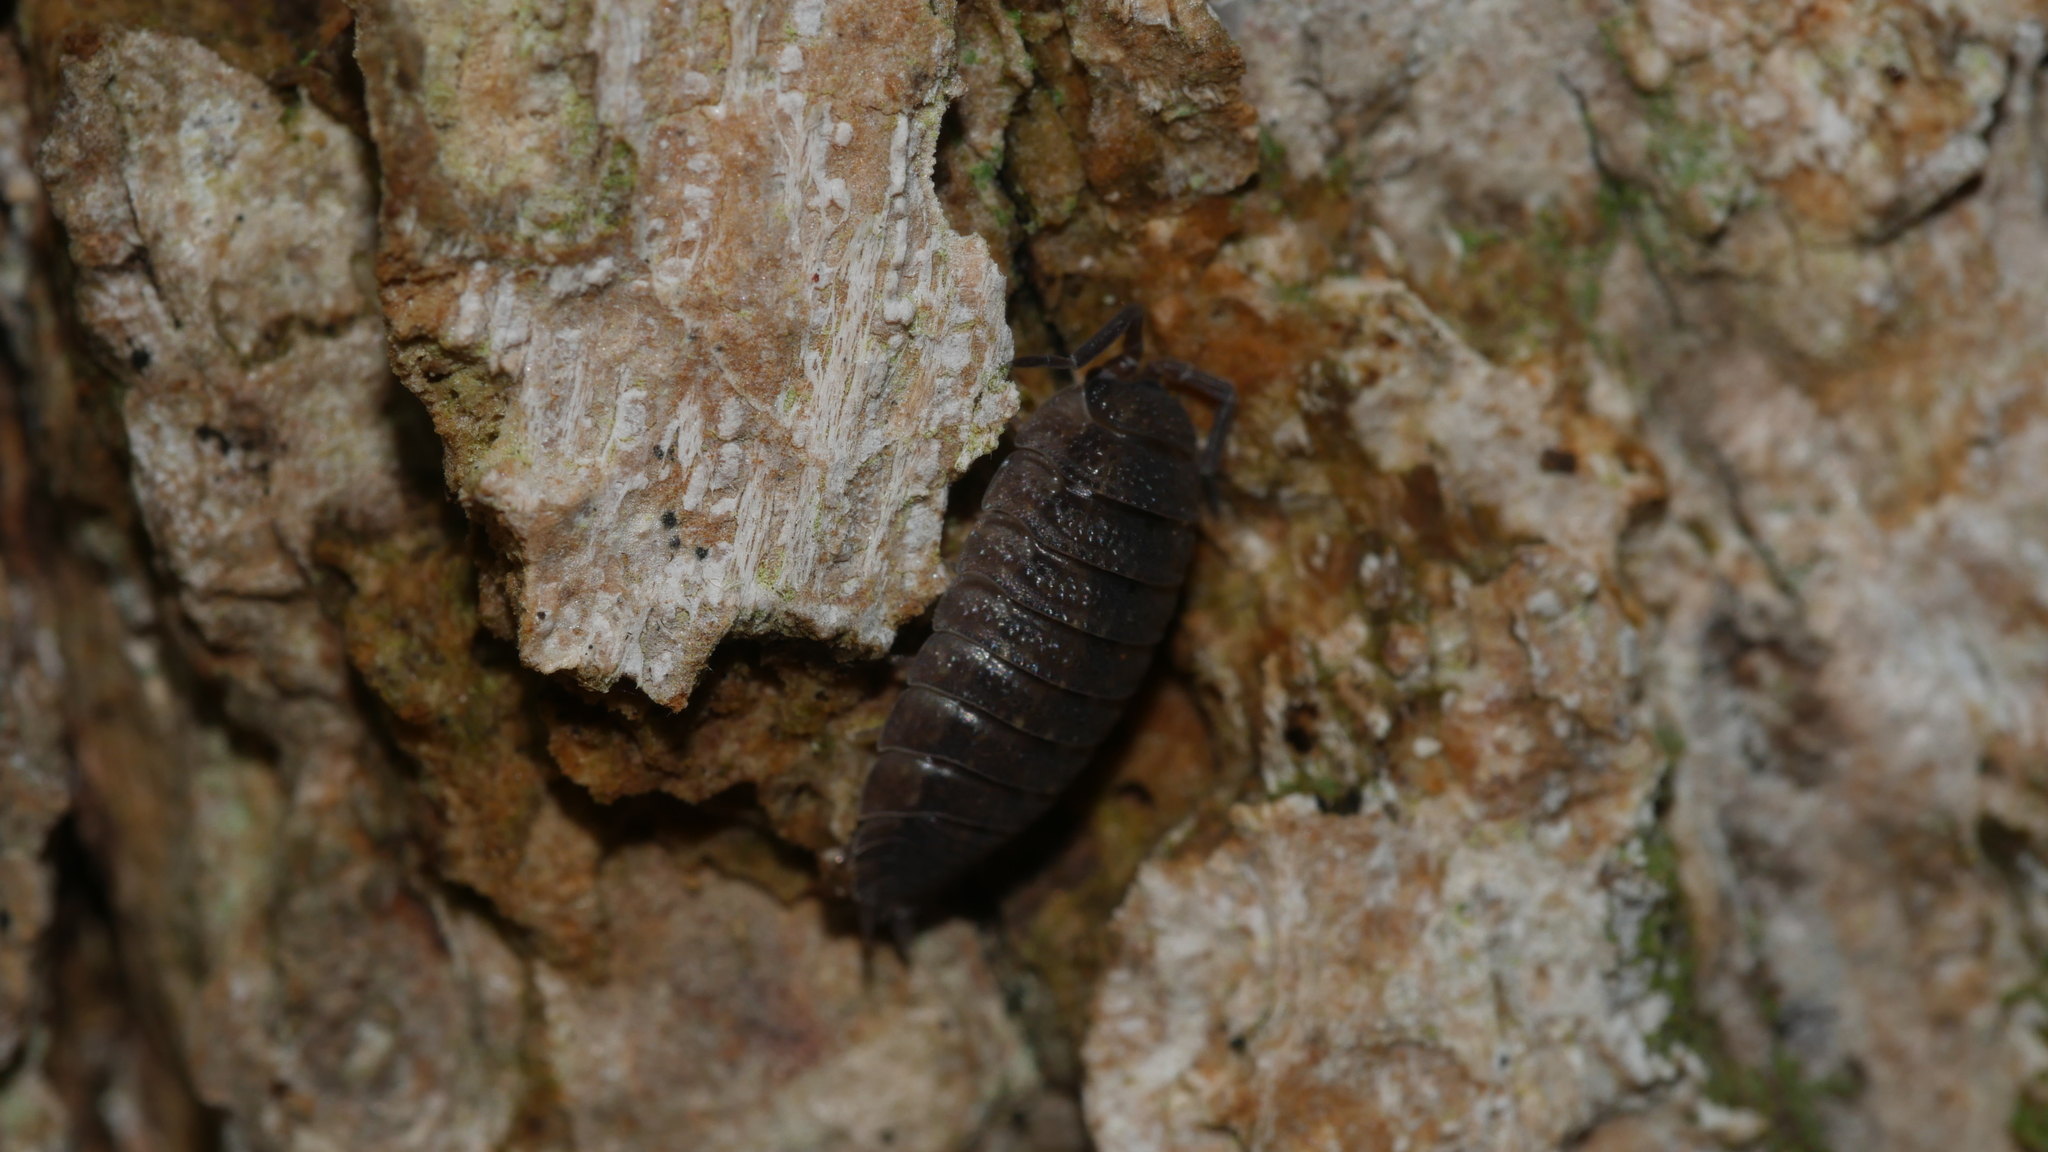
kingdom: Animalia
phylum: Arthropoda
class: Malacostraca
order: Isopoda
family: Porcellionidae
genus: Porcellio
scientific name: Porcellio scaber
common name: Common rough woodlouse
